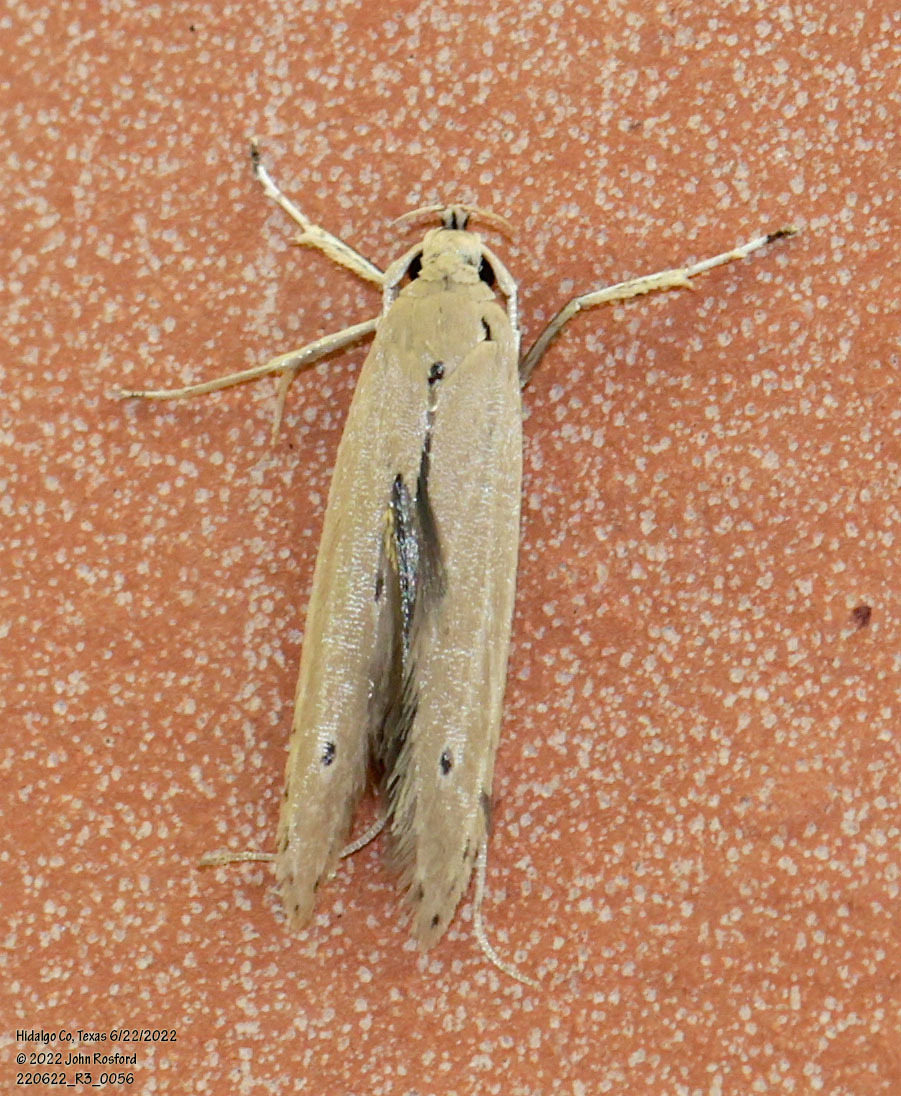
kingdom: Animalia
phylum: Arthropoda
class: Insecta
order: Lepidoptera
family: Coleophoridae
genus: Homaledra
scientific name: Homaledra sabalella
